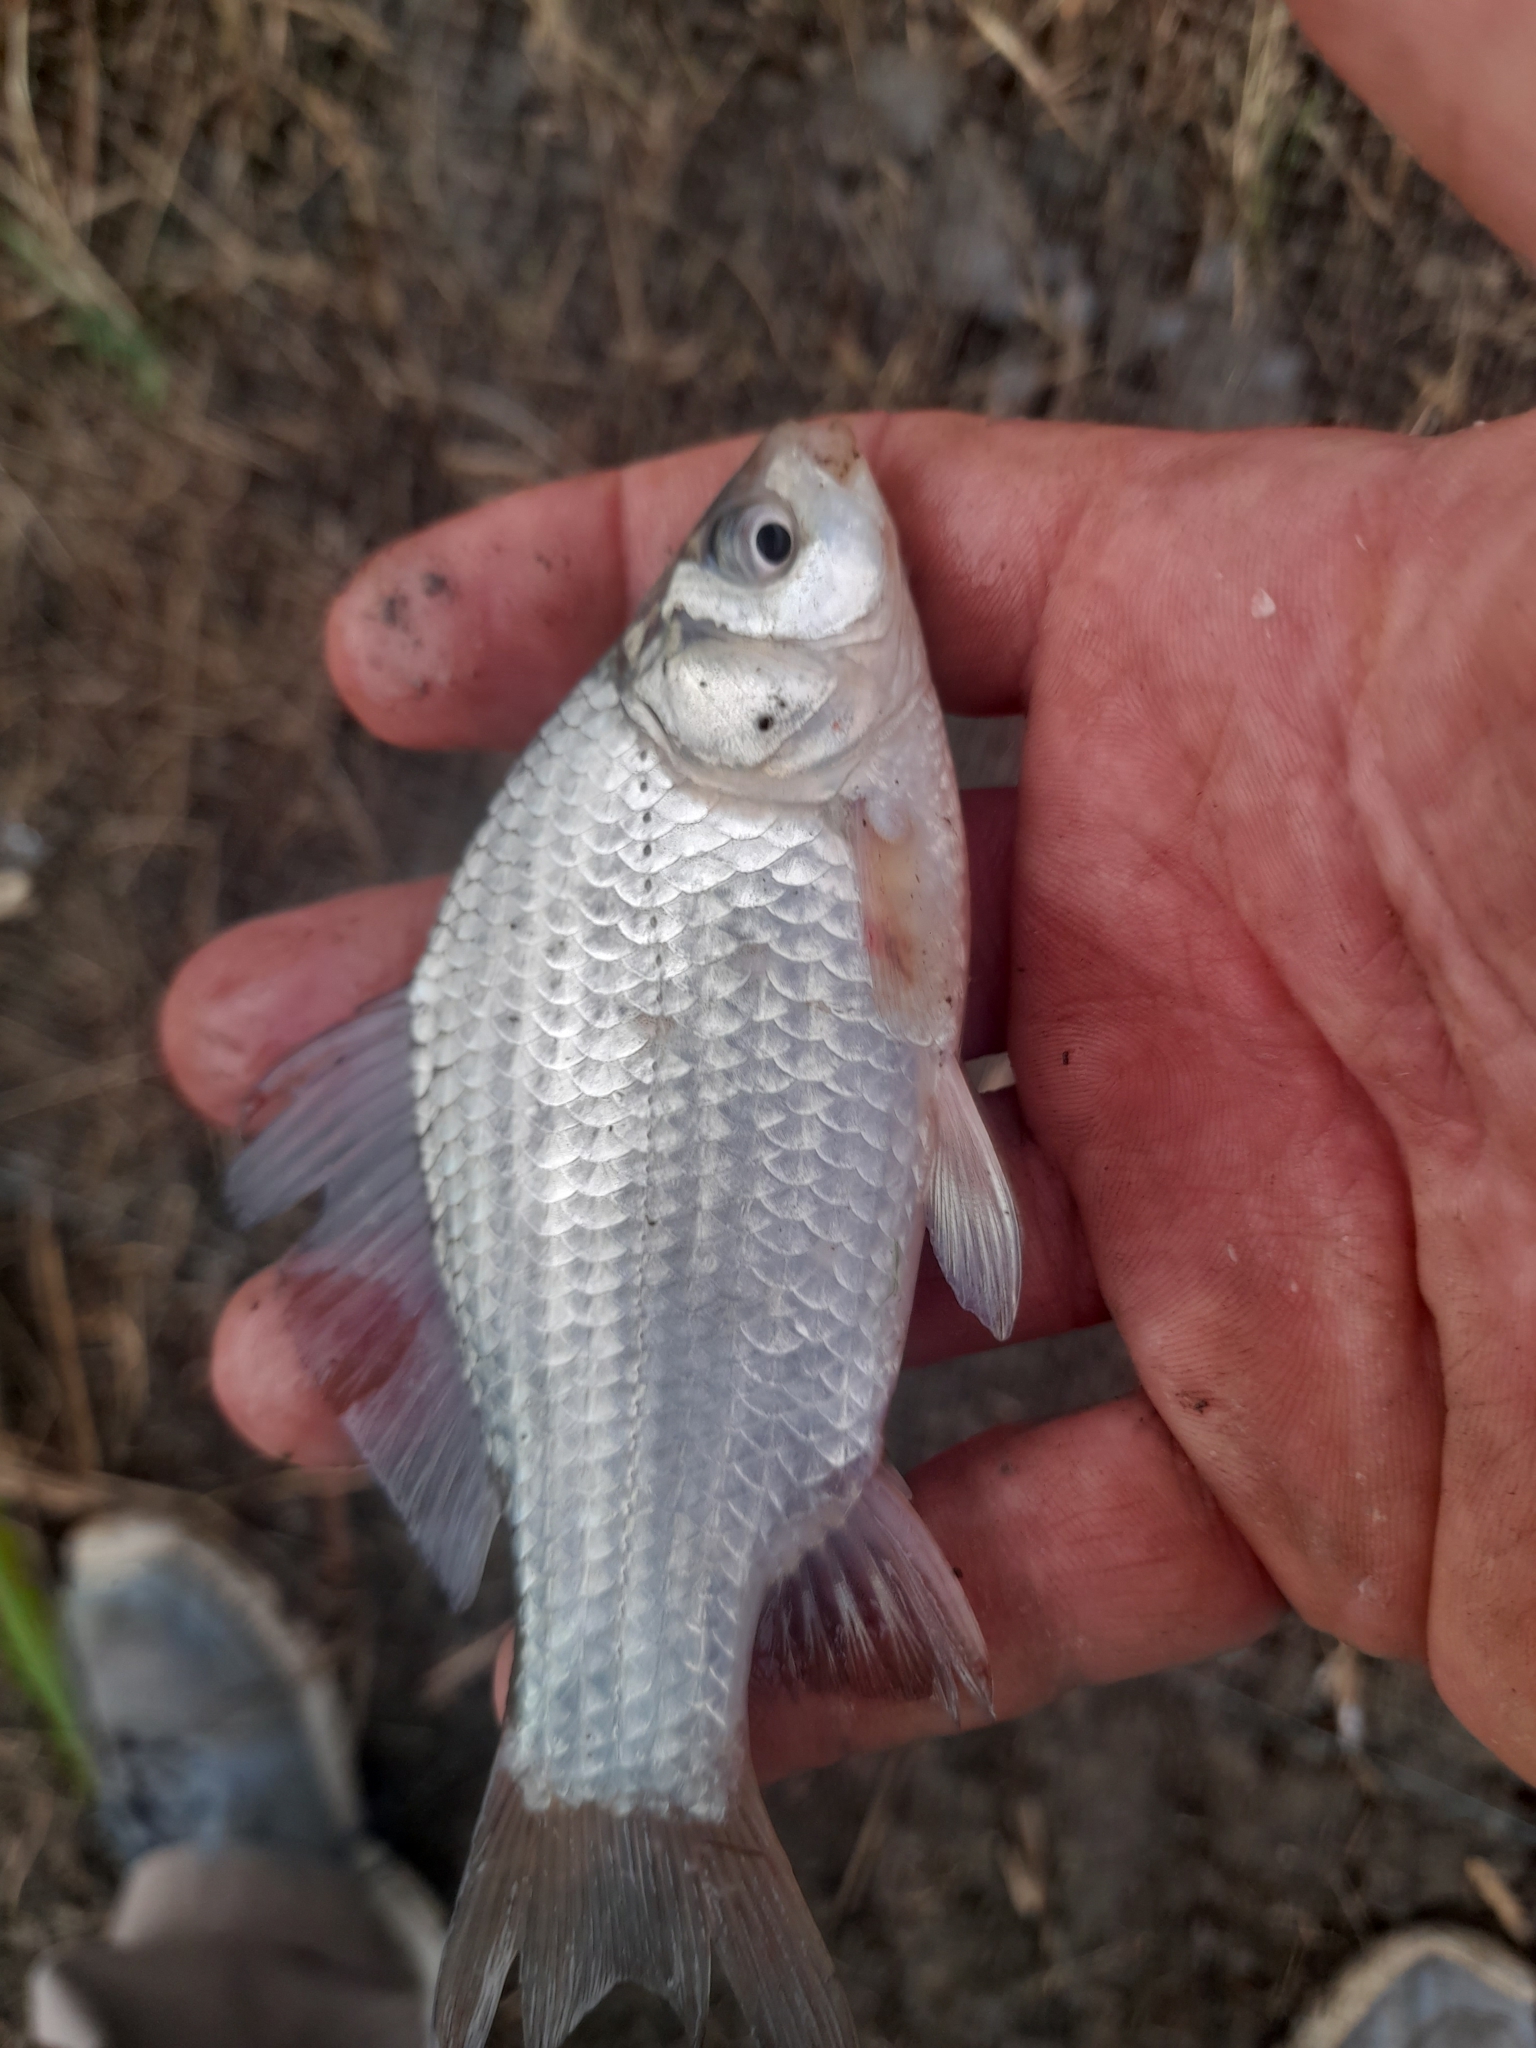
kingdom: Animalia
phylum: Chordata
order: Cypriniformes
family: Cyprinidae
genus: Carassius
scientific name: Carassius gibelio
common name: Prussian carp
